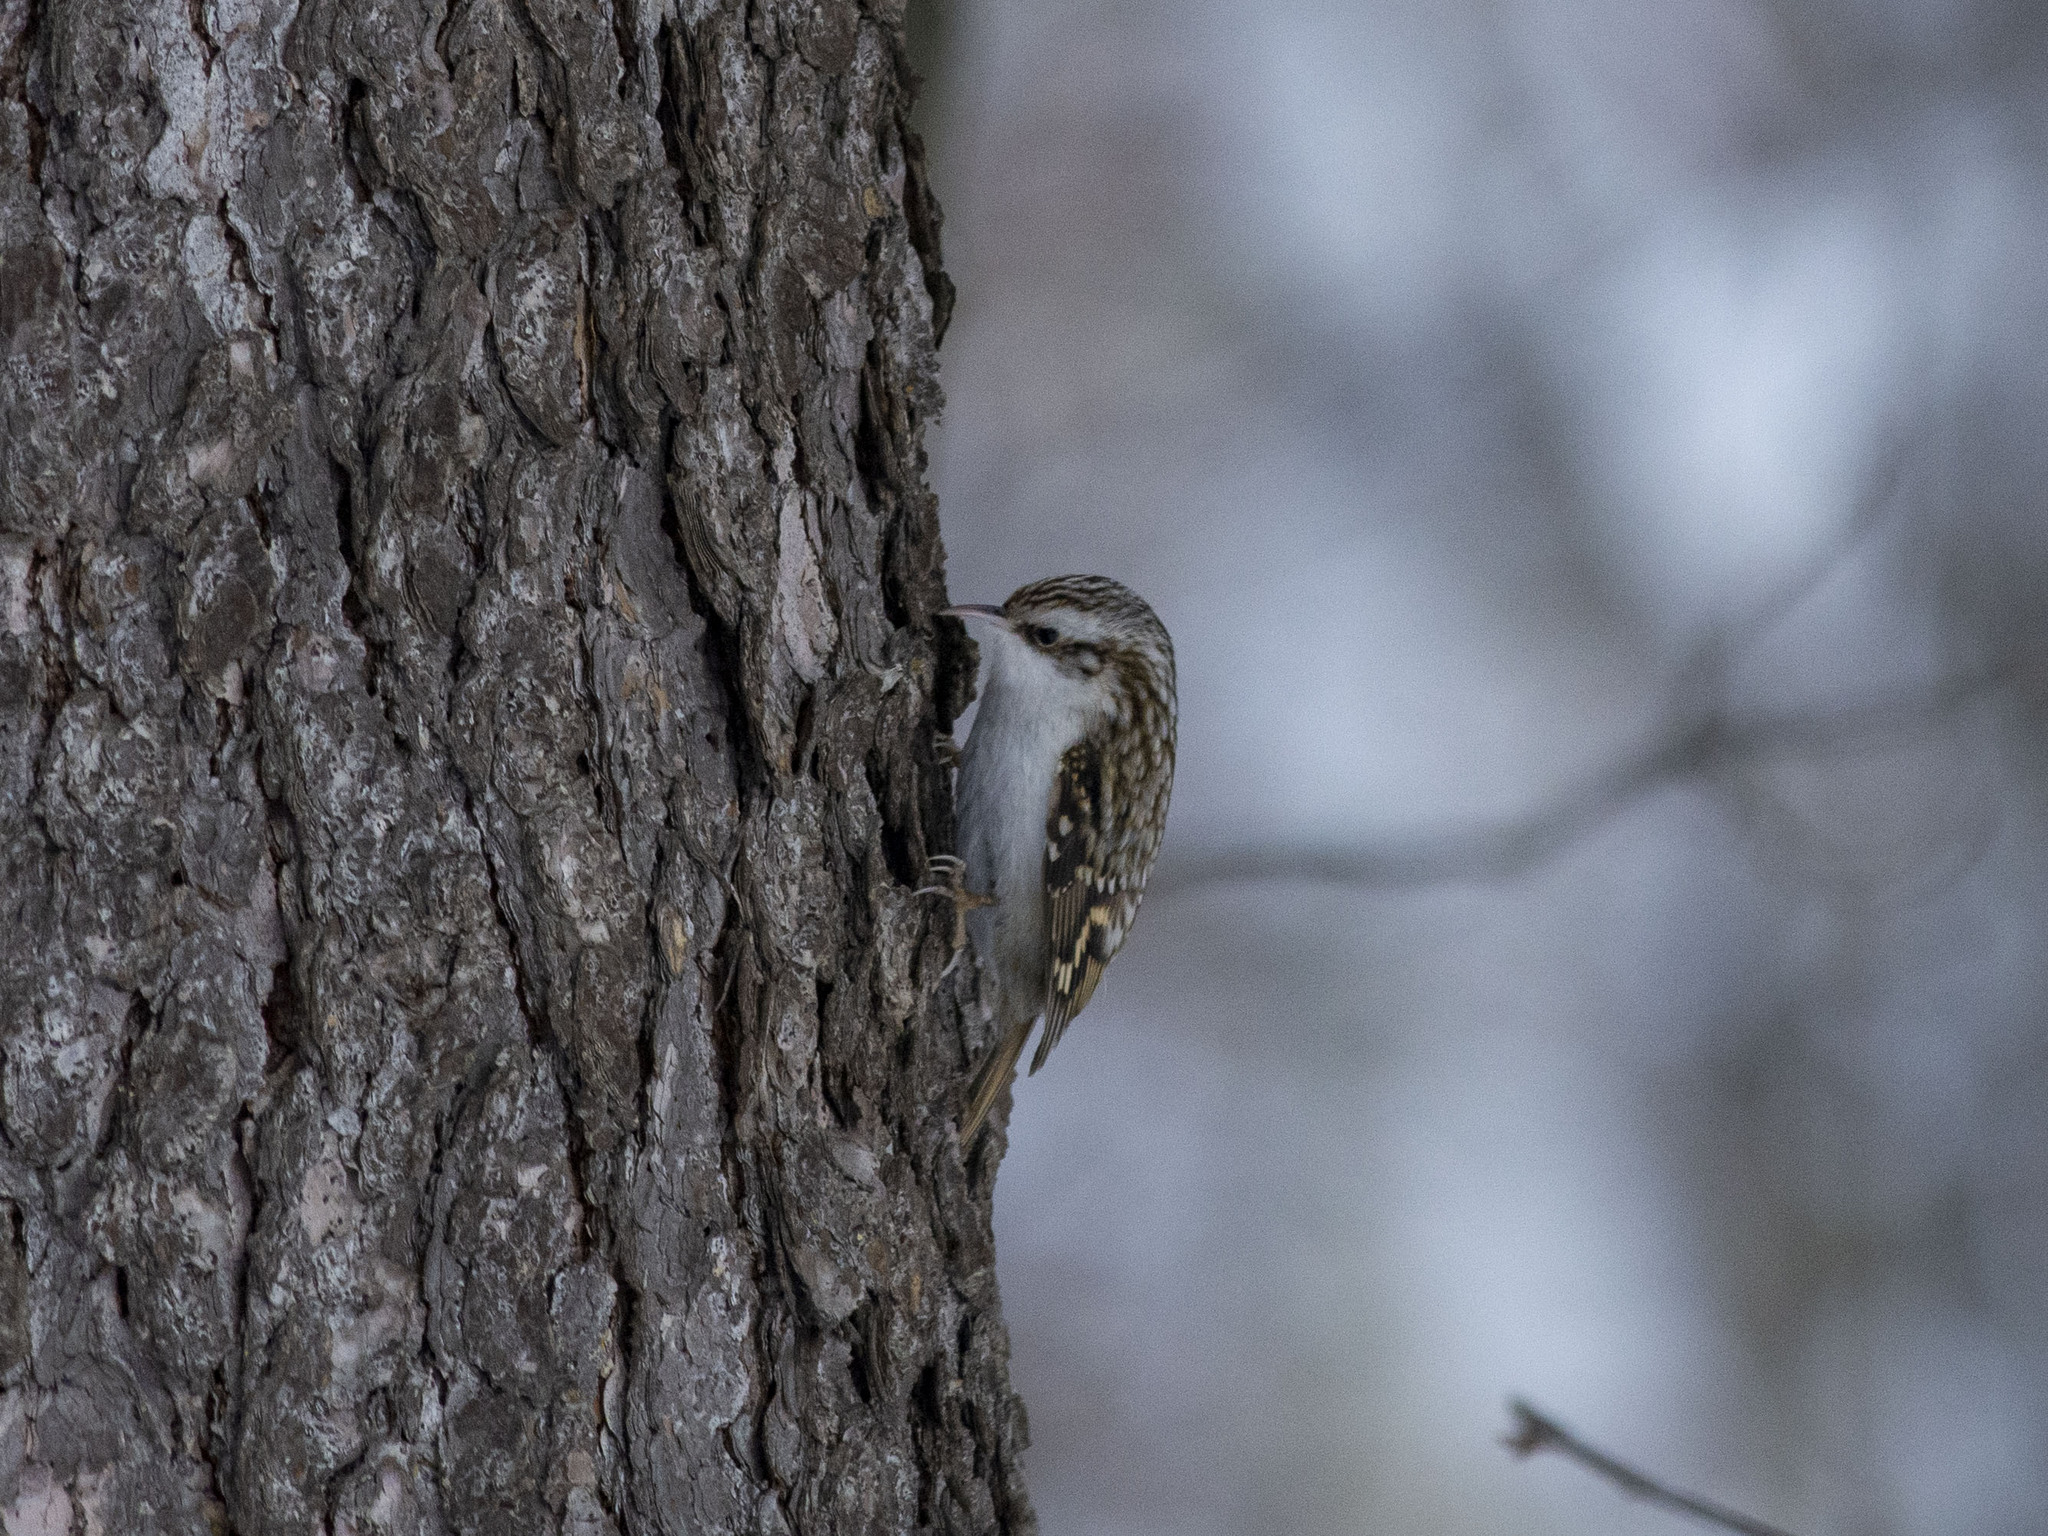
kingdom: Animalia
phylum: Chordata
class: Aves
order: Passeriformes
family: Certhiidae
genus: Certhia
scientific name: Certhia familiaris
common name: Eurasian treecreeper
